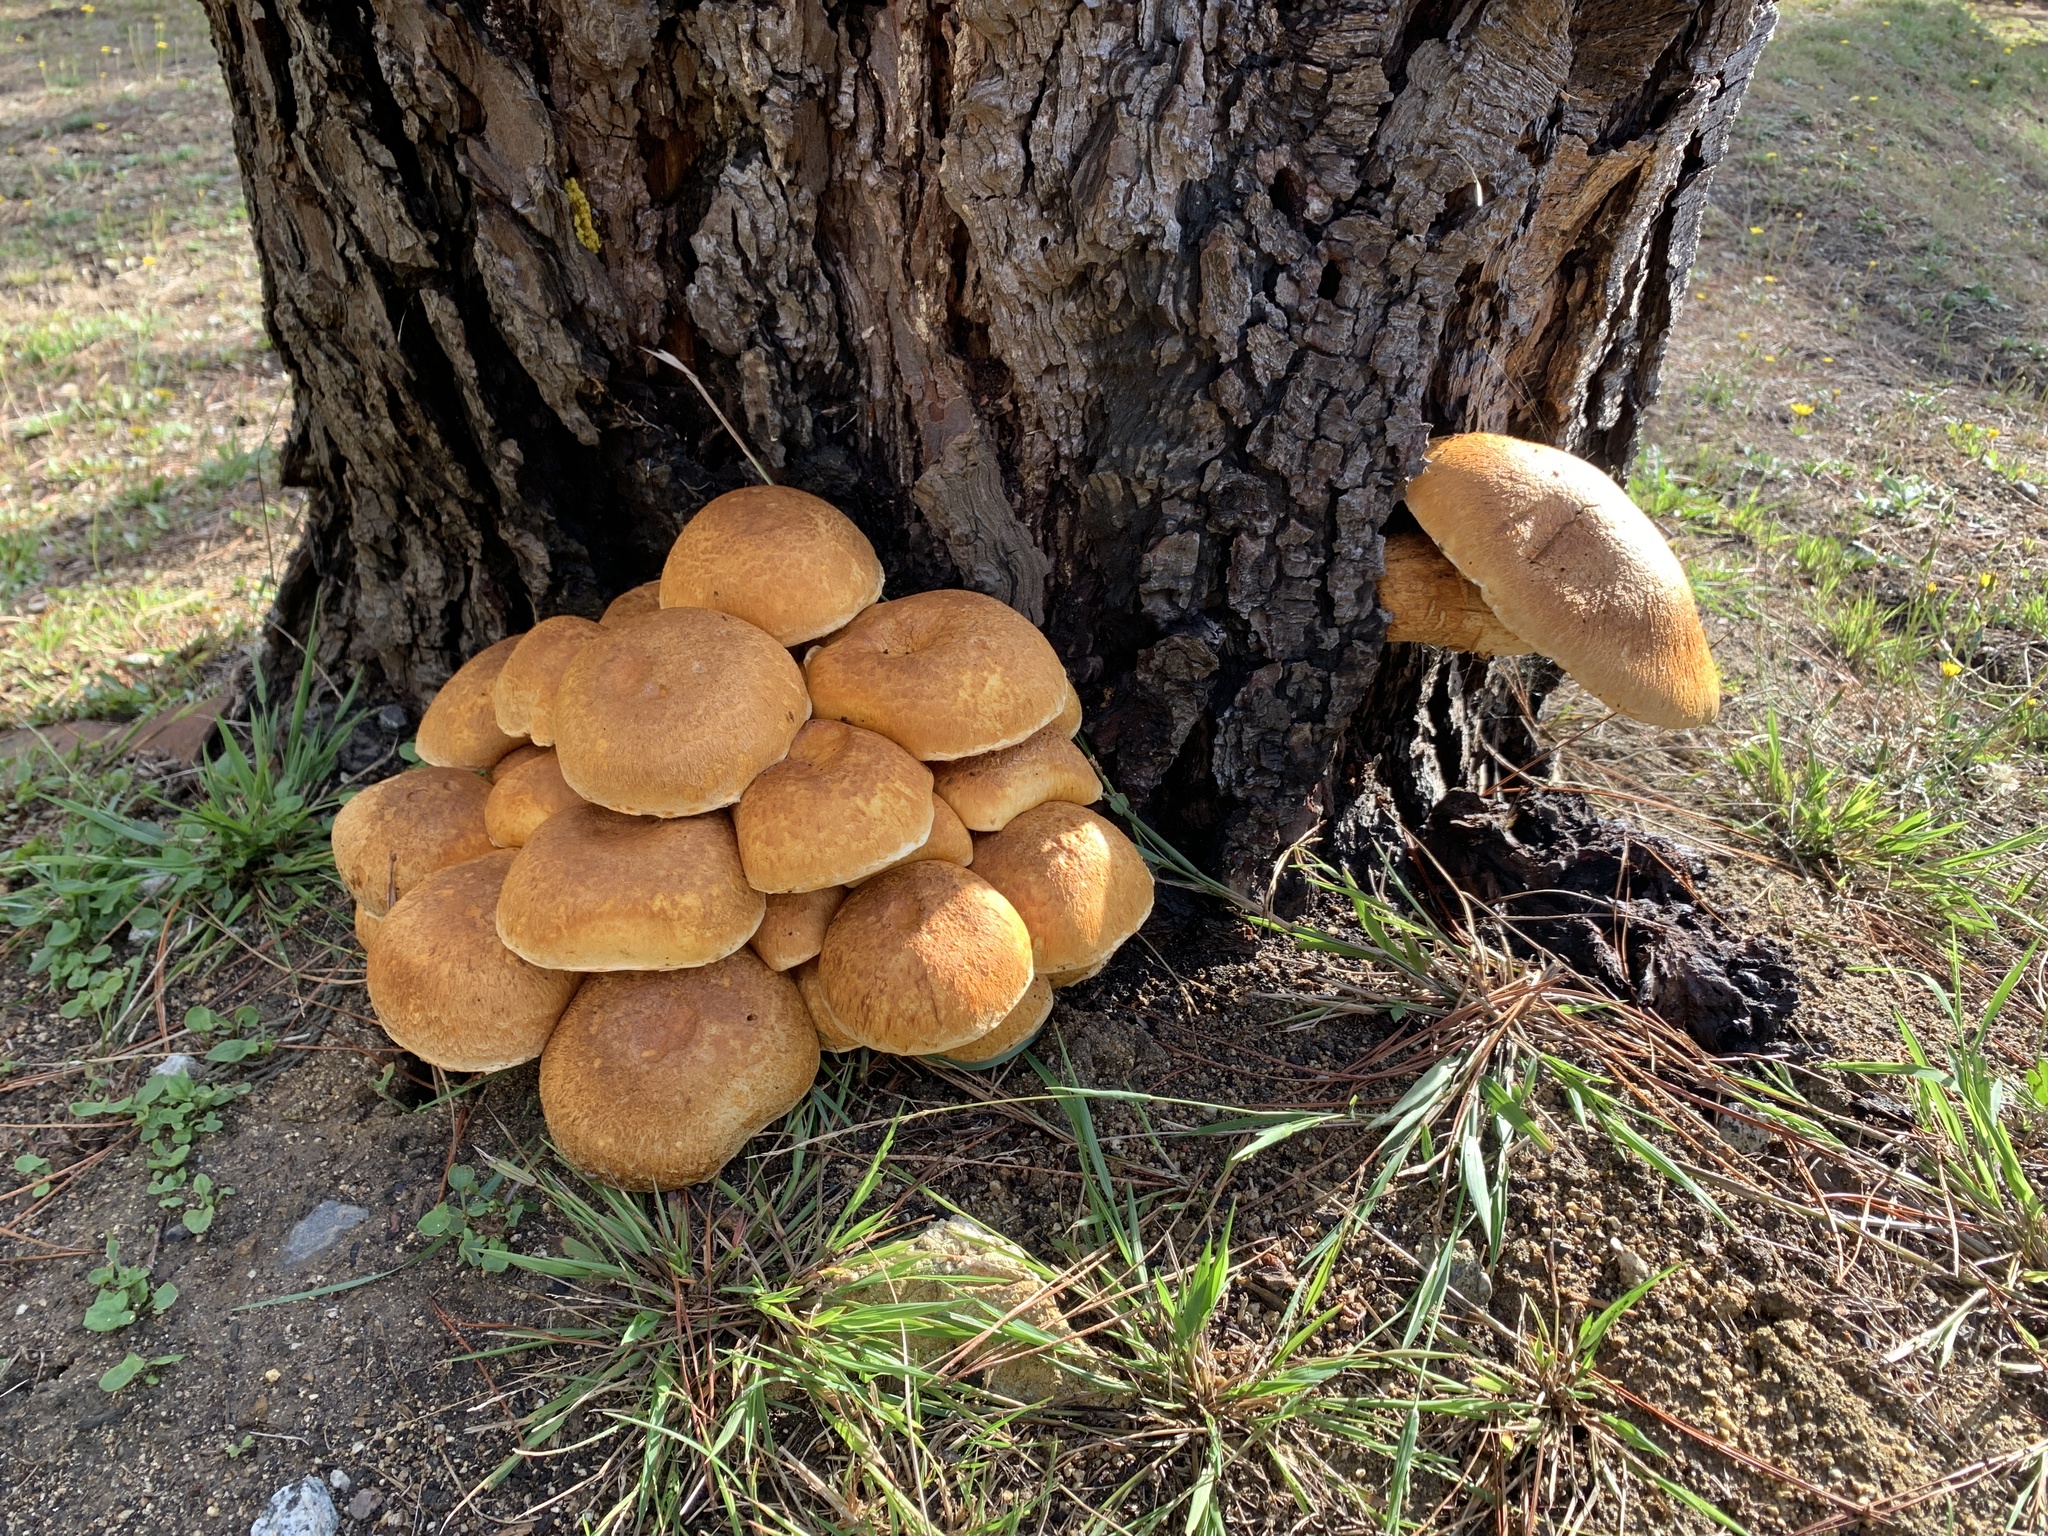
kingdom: Fungi
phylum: Basidiomycota
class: Agaricomycetes
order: Agaricales
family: Hymenogastraceae
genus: Gymnopilus
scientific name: Gymnopilus ventricosus
